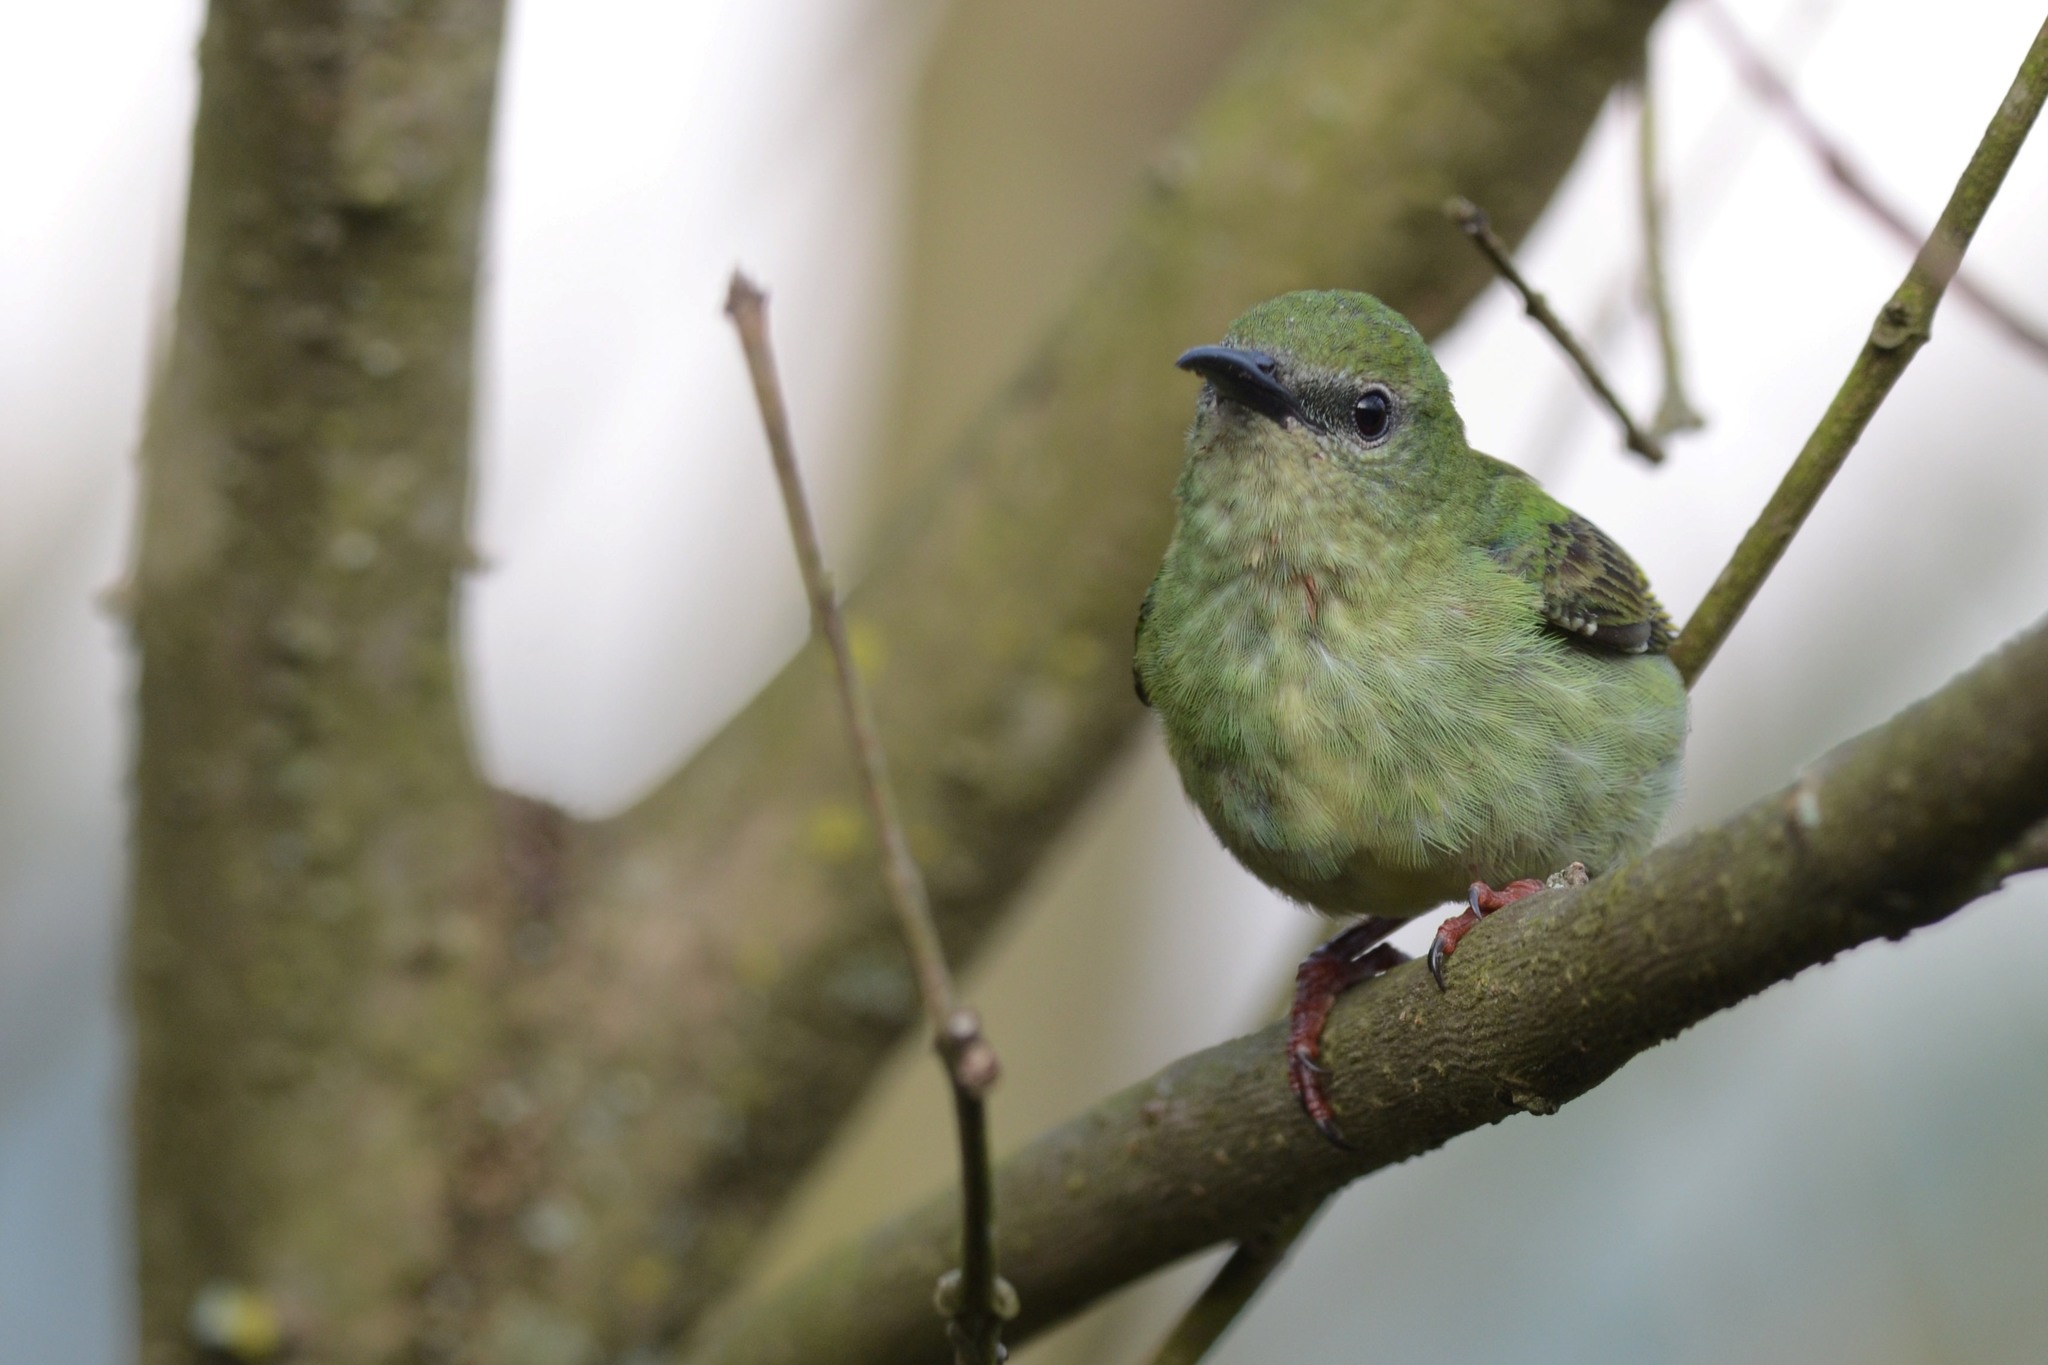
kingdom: Animalia
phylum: Chordata
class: Aves
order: Passeriformes
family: Thraupidae
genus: Cyanerpes
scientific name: Cyanerpes cyaneus
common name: Red-legged honeycreeper
